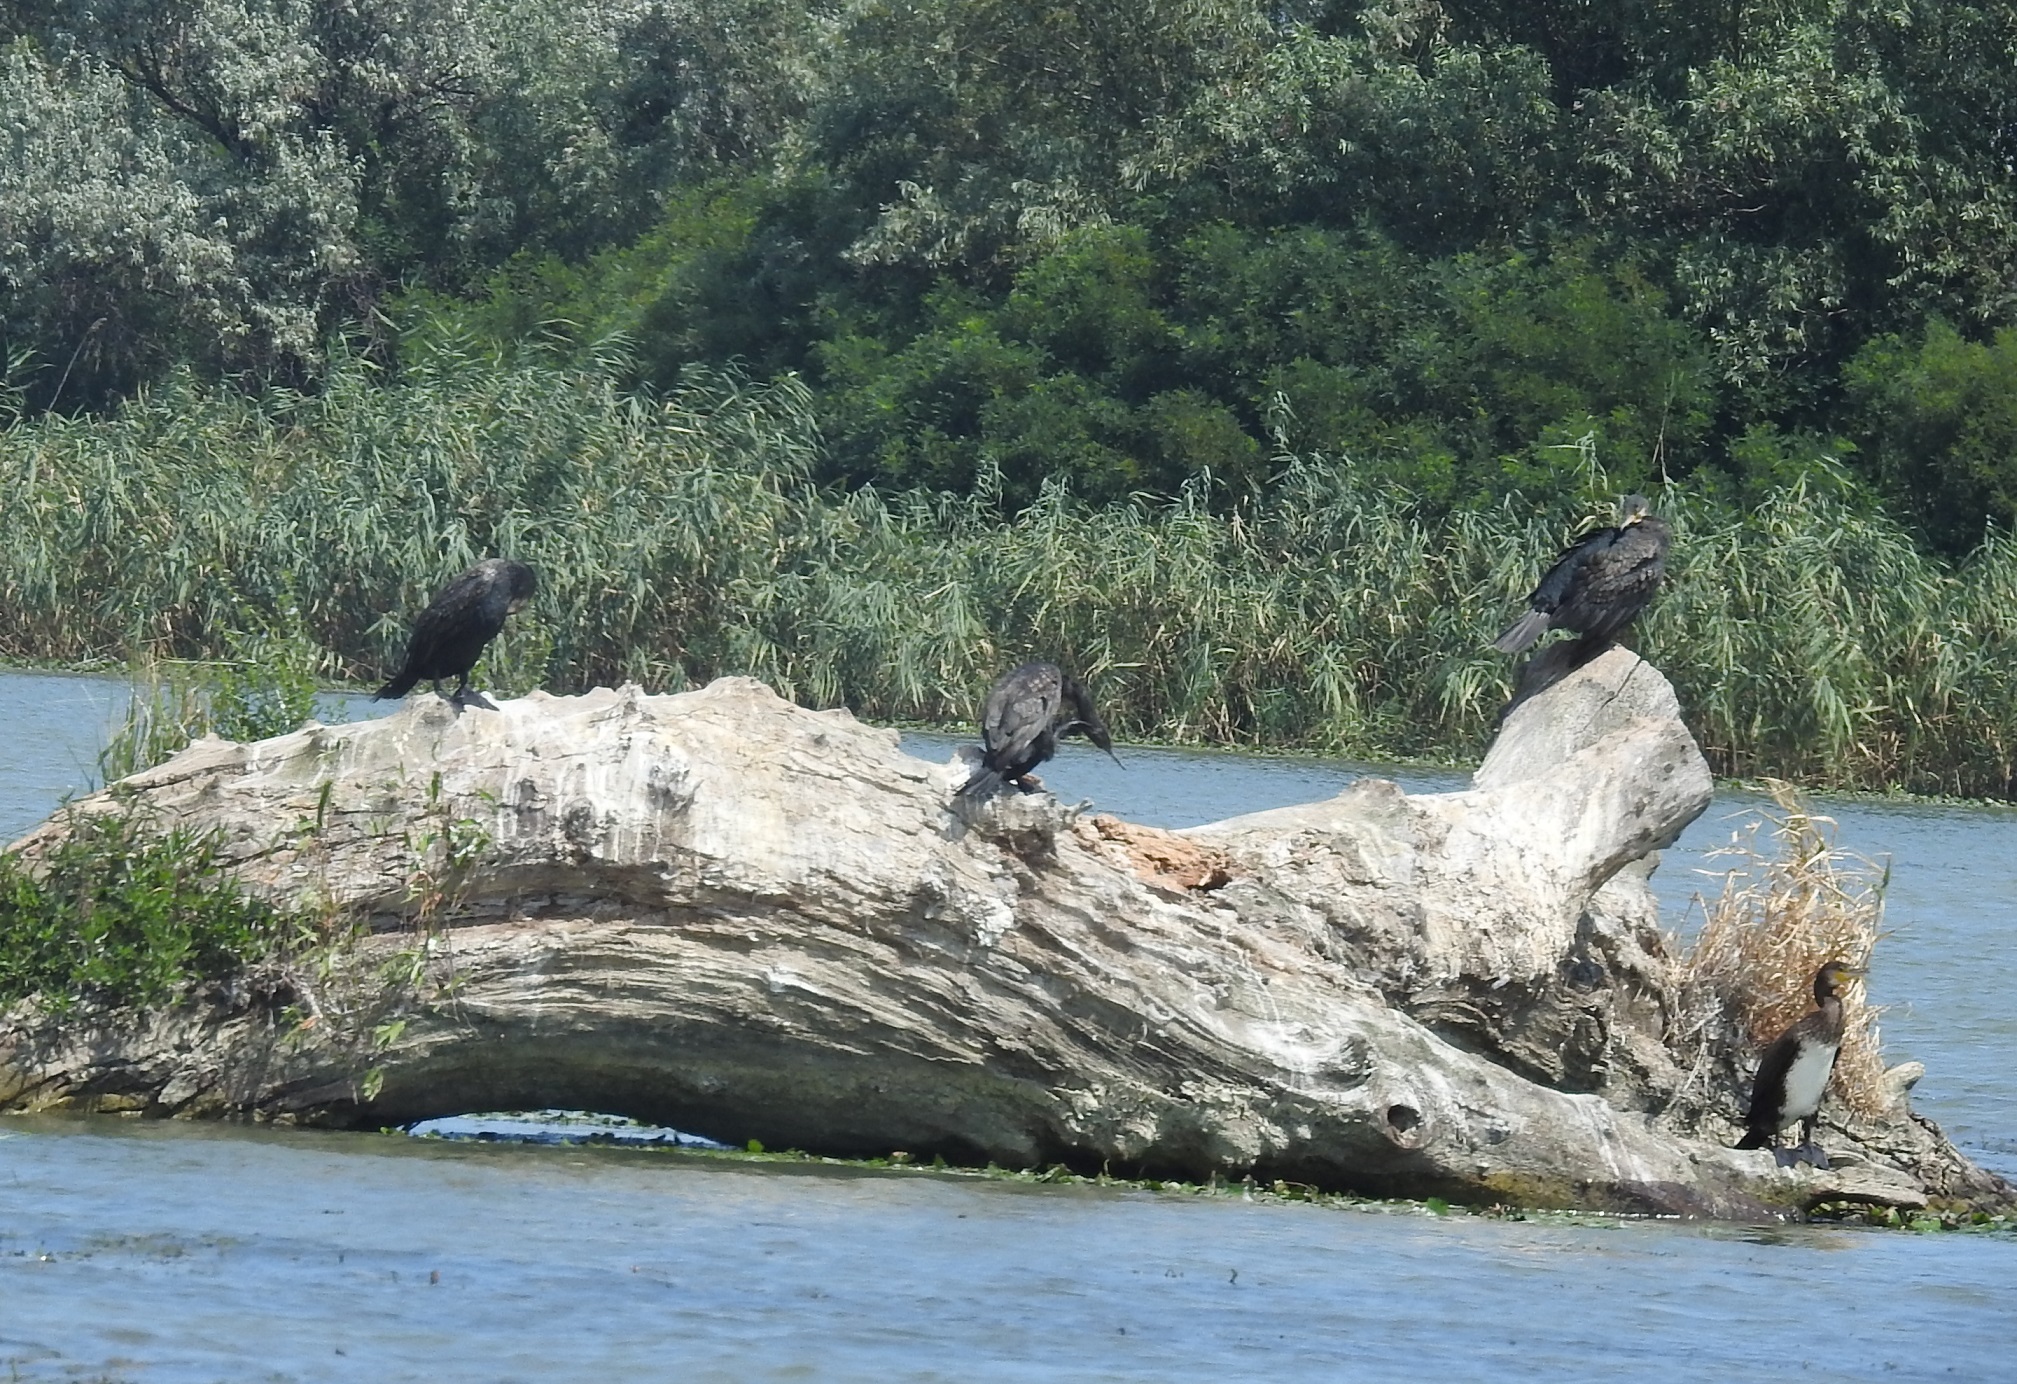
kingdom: Animalia
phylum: Chordata
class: Aves
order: Suliformes
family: Phalacrocoracidae
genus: Phalacrocorax
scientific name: Phalacrocorax carbo
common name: Great cormorant
